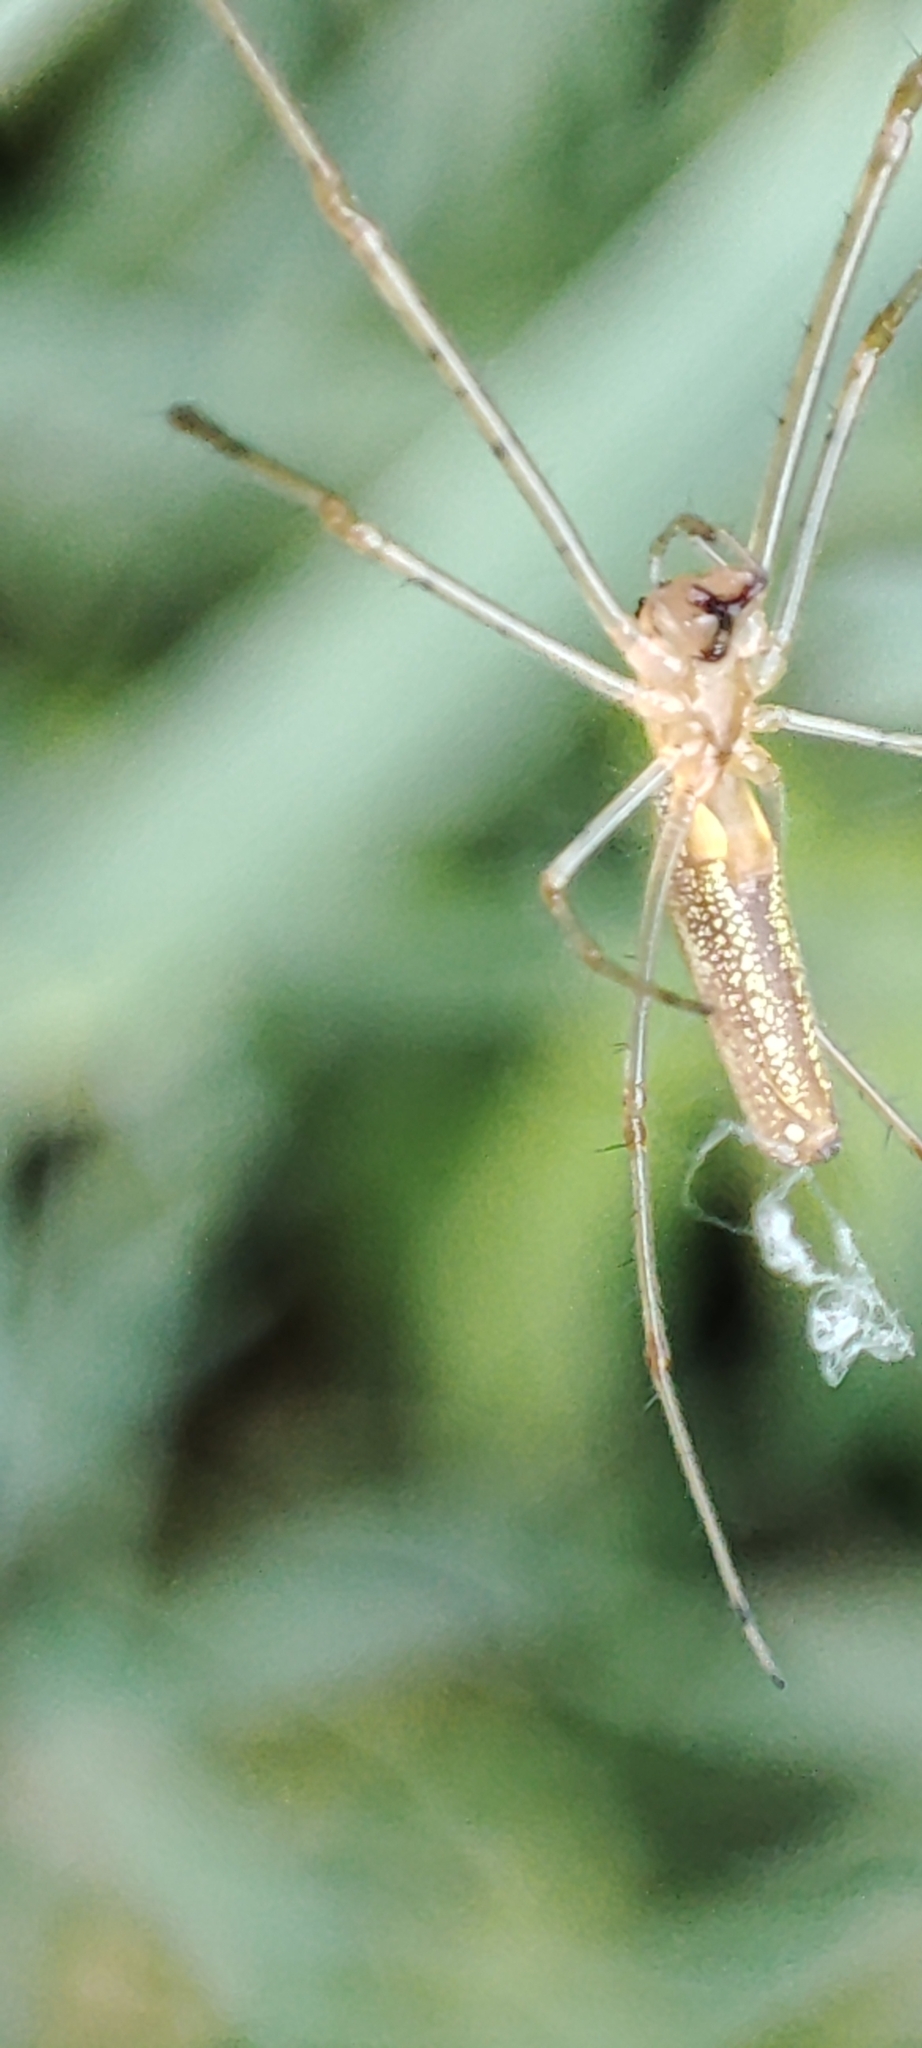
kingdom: Animalia
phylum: Arthropoda
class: Arachnida
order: Araneae
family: Tetragnathidae
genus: Tetragnatha
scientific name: Tetragnatha
